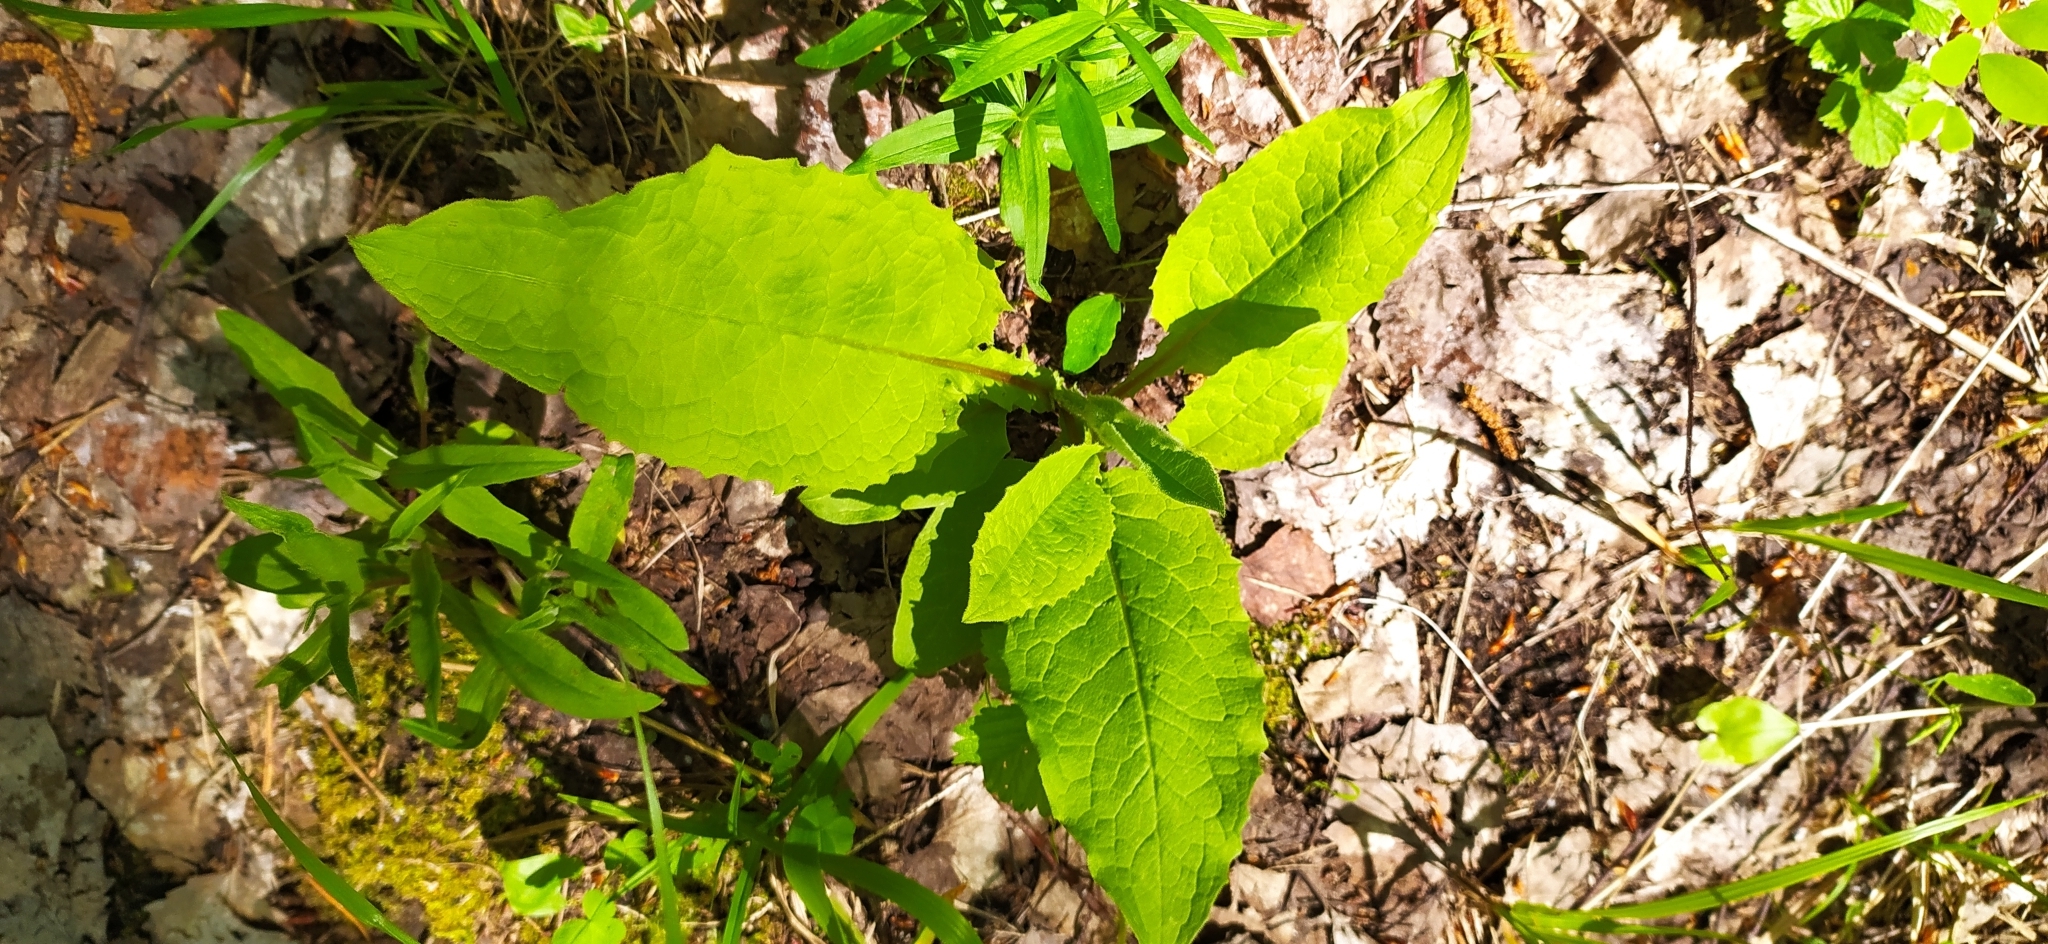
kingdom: Plantae
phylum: Tracheophyta
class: Magnoliopsida
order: Asterales
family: Asteraceae
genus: Crepis
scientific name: Crepis sibirica
